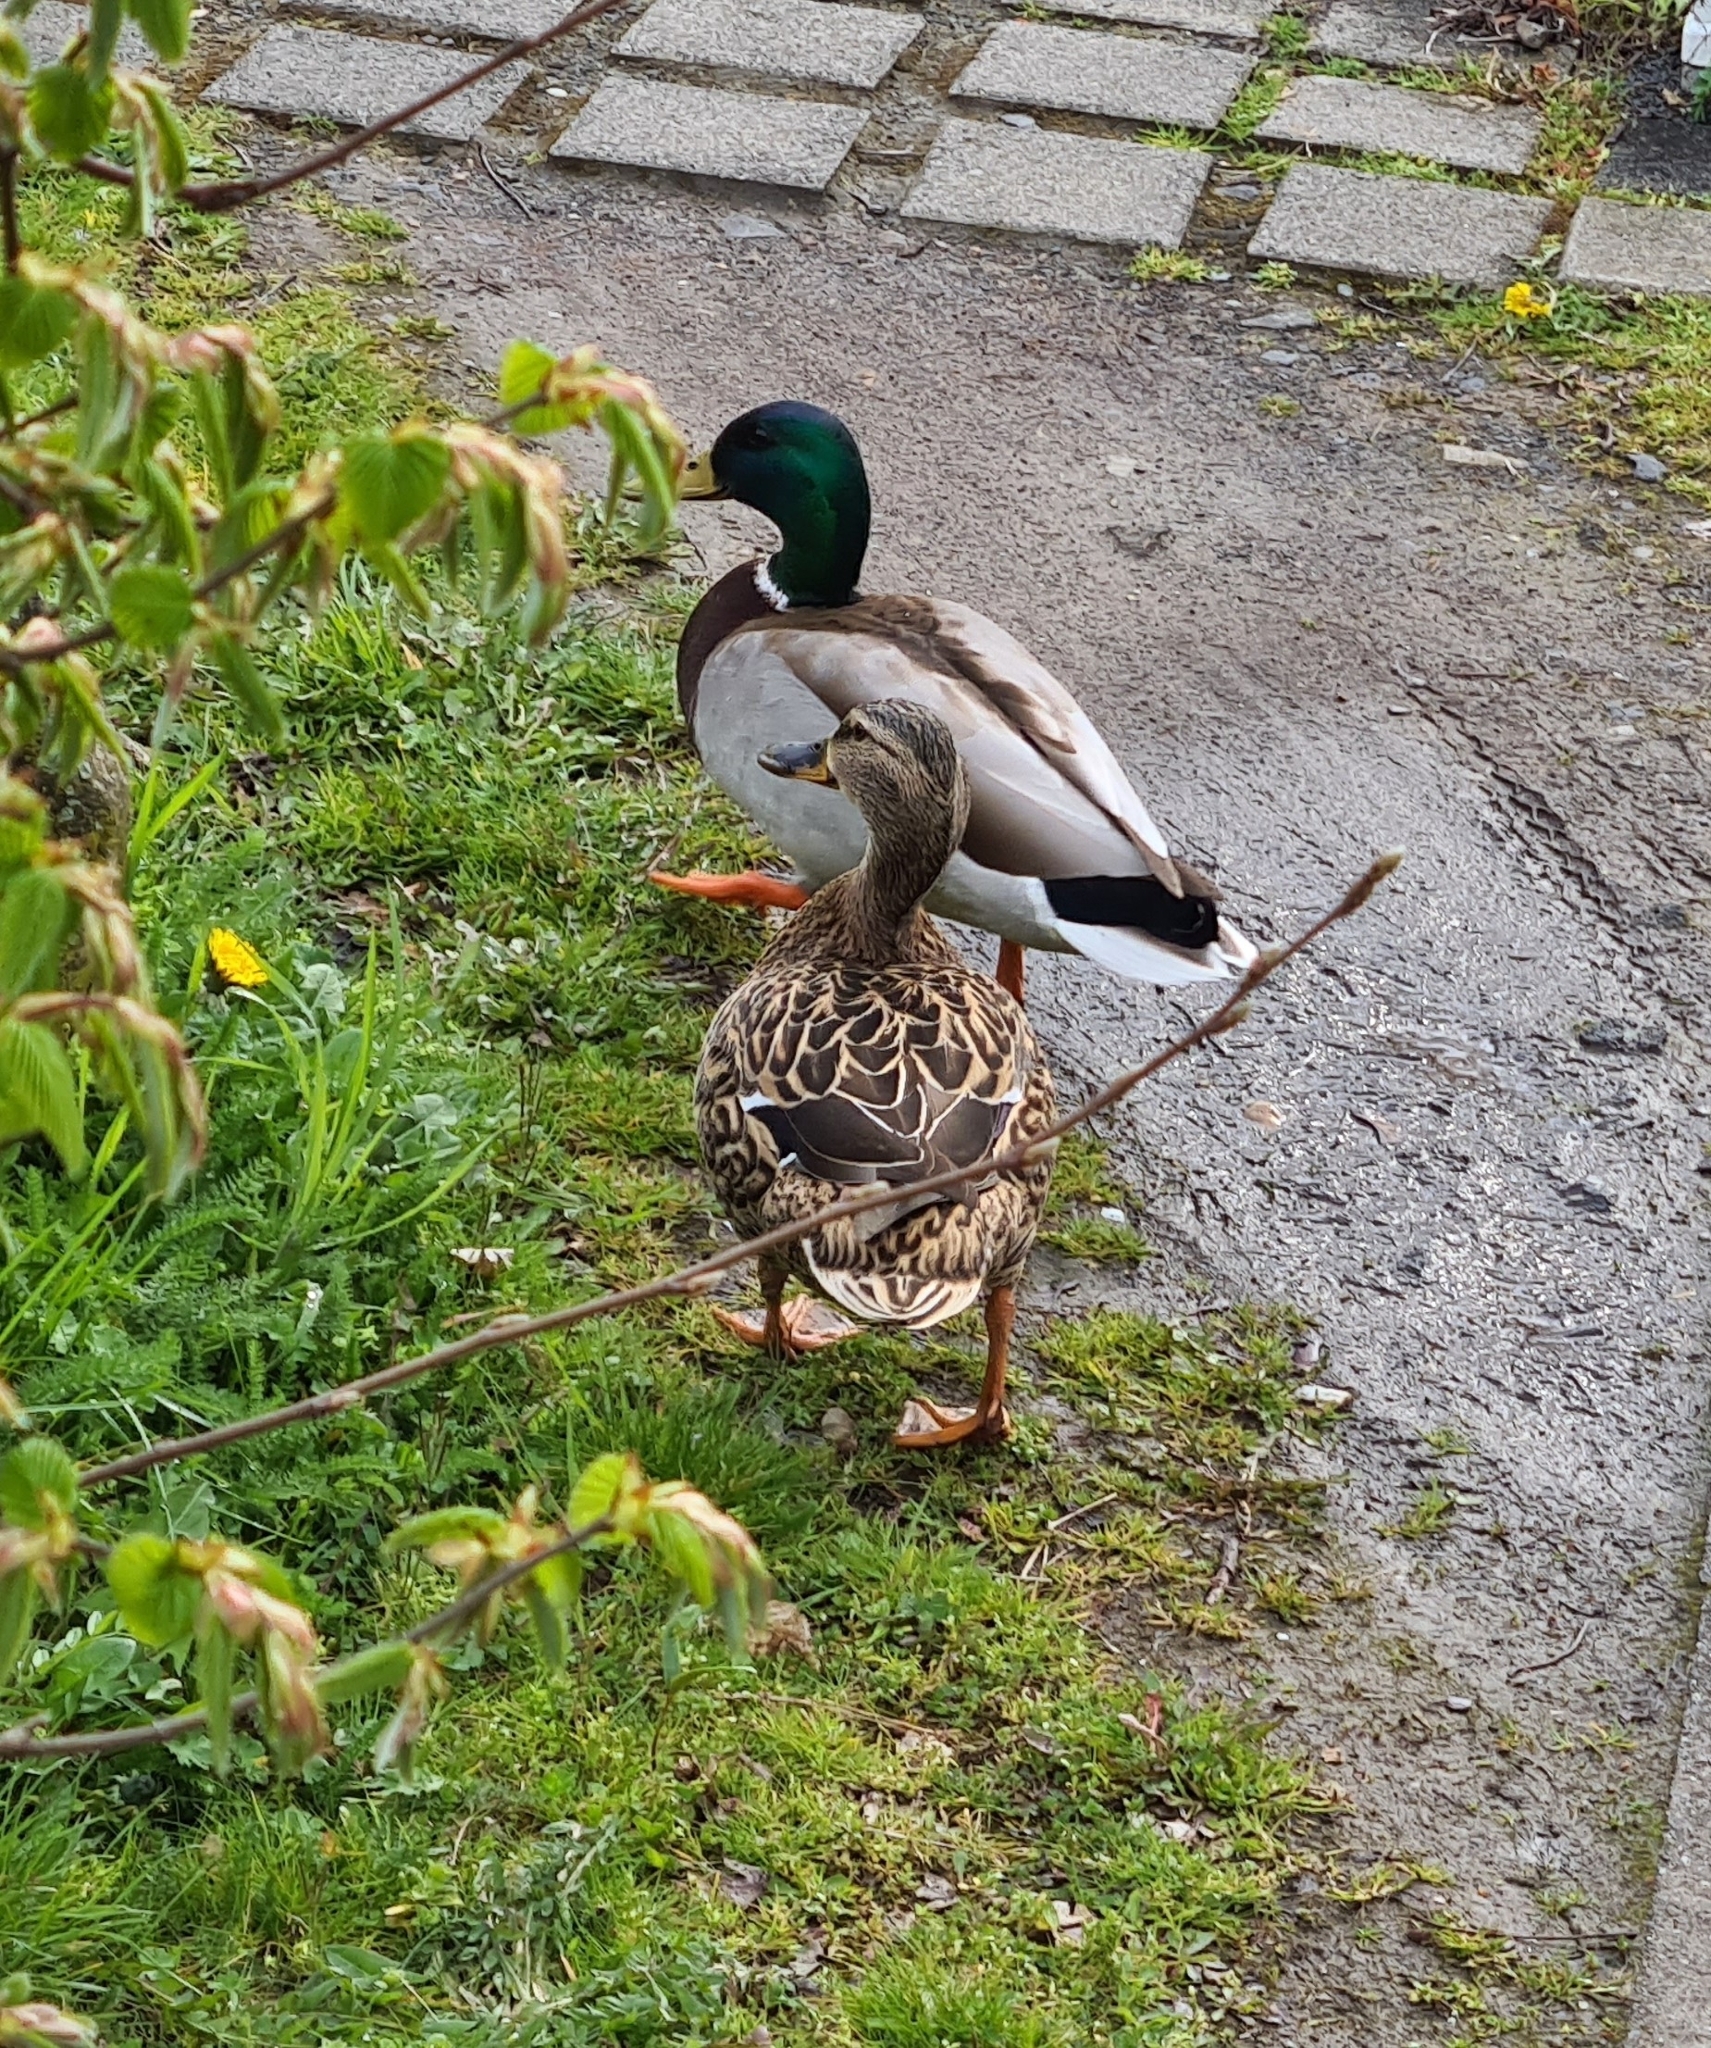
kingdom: Animalia
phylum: Chordata
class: Aves
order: Anseriformes
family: Anatidae
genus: Anas
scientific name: Anas platyrhynchos
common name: Mallard
